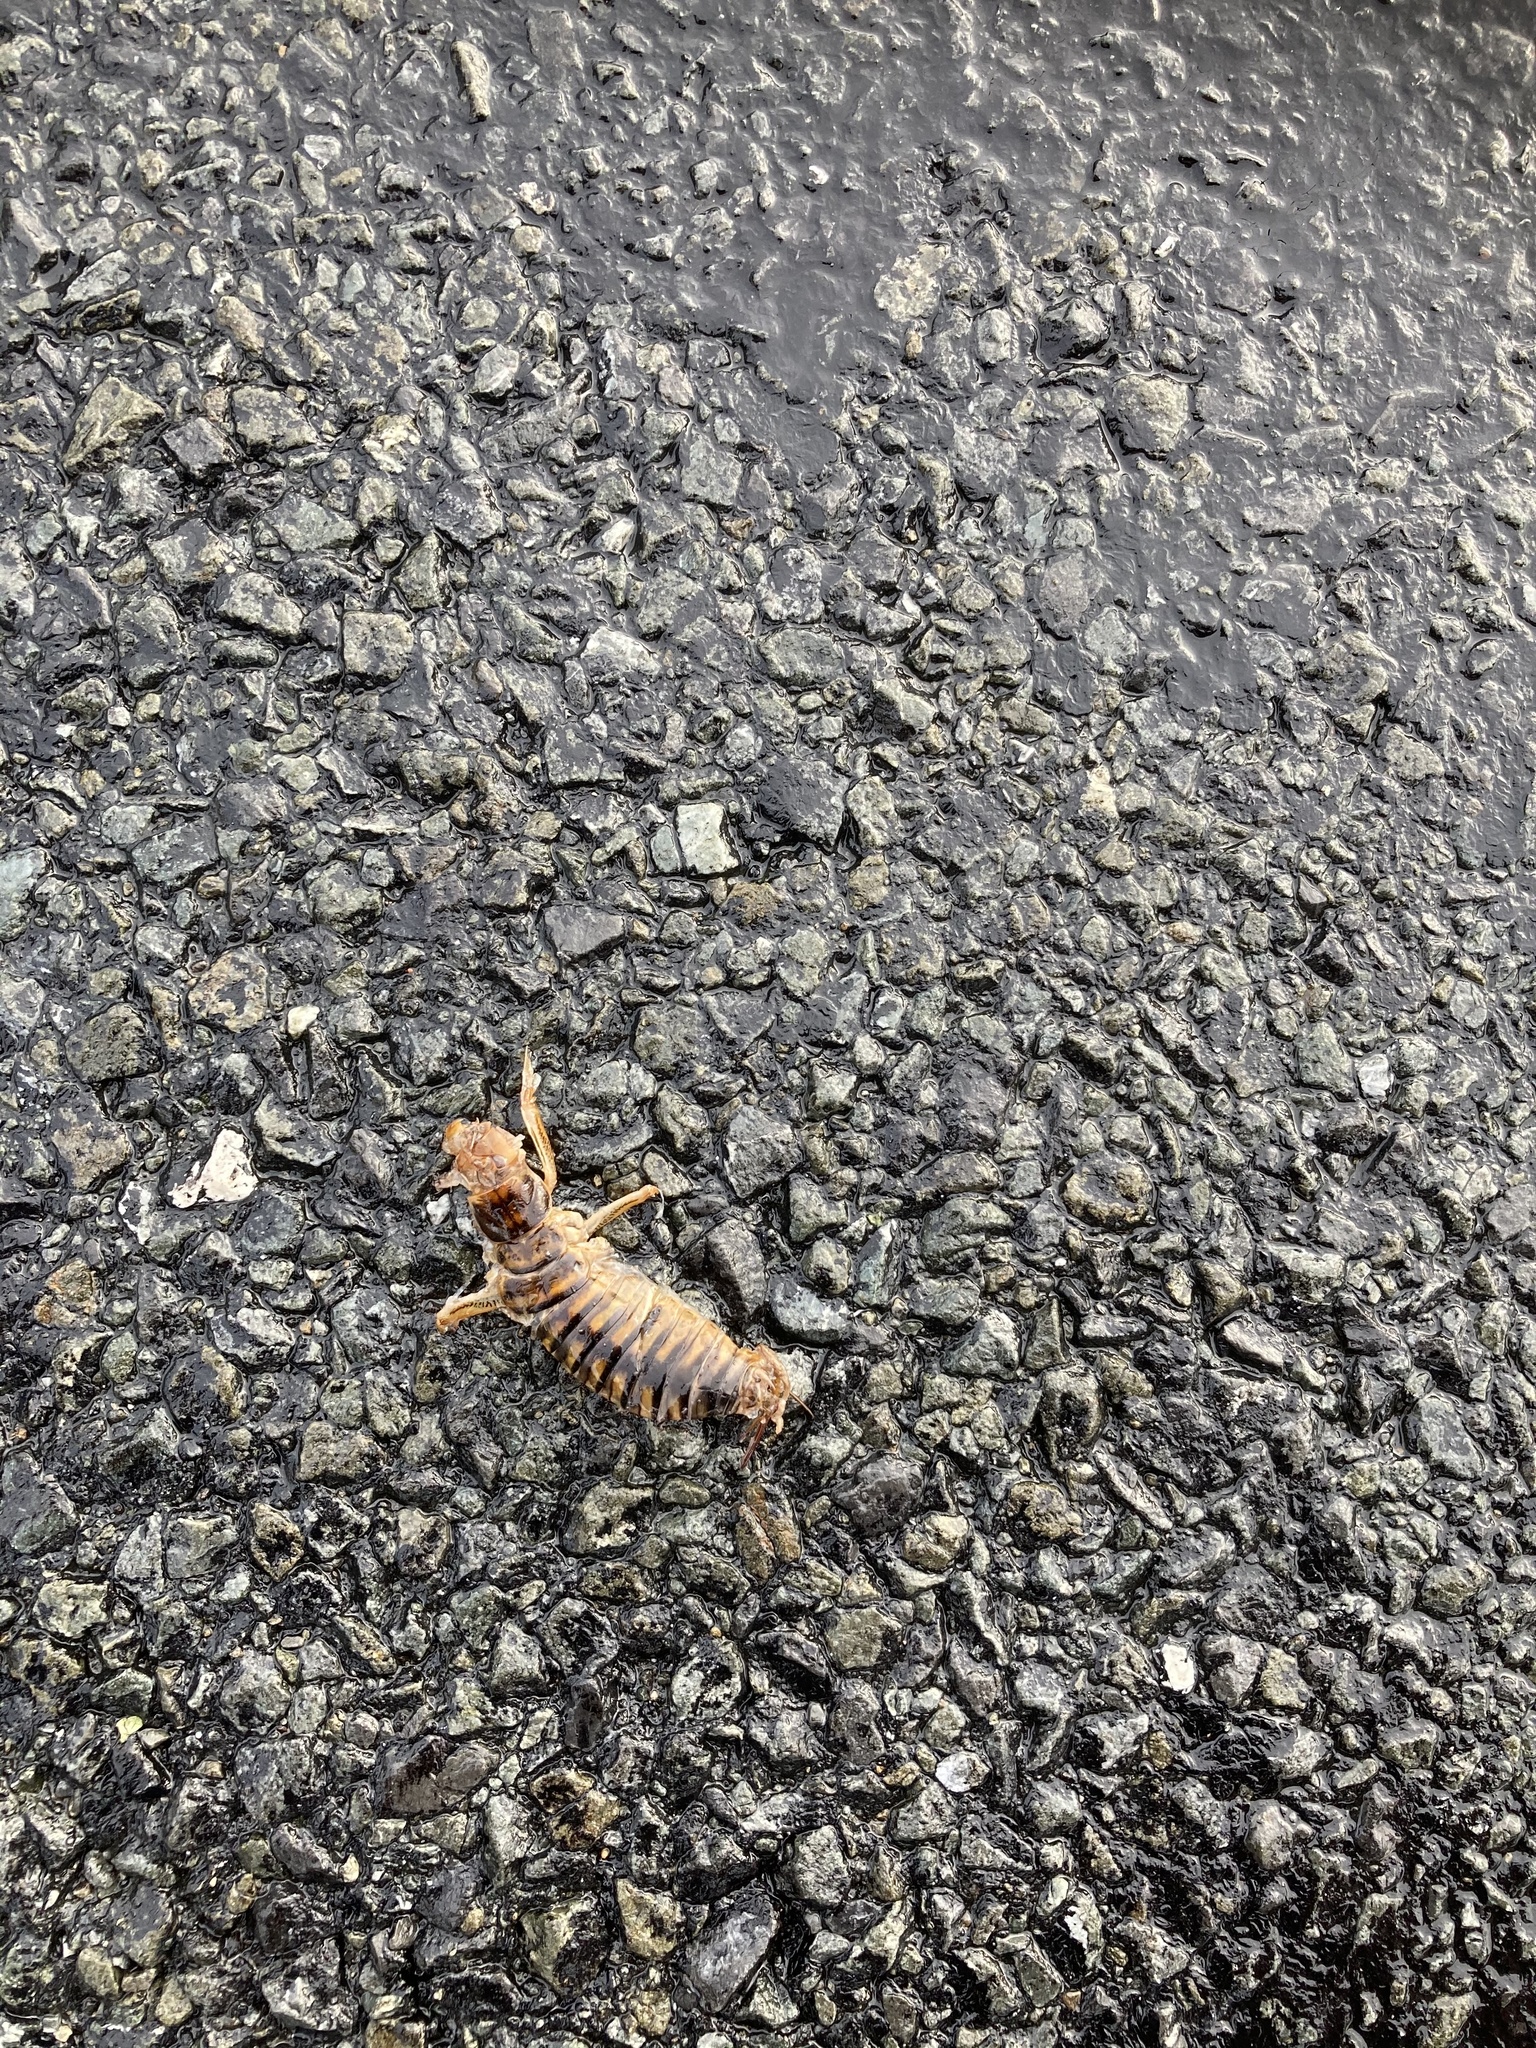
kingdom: Animalia
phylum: Arthropoda
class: Insecta
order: Orthoptera
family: Anostostomatidae
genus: Hemideina
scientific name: Hemideina crassidens
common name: Wellington tree weta
